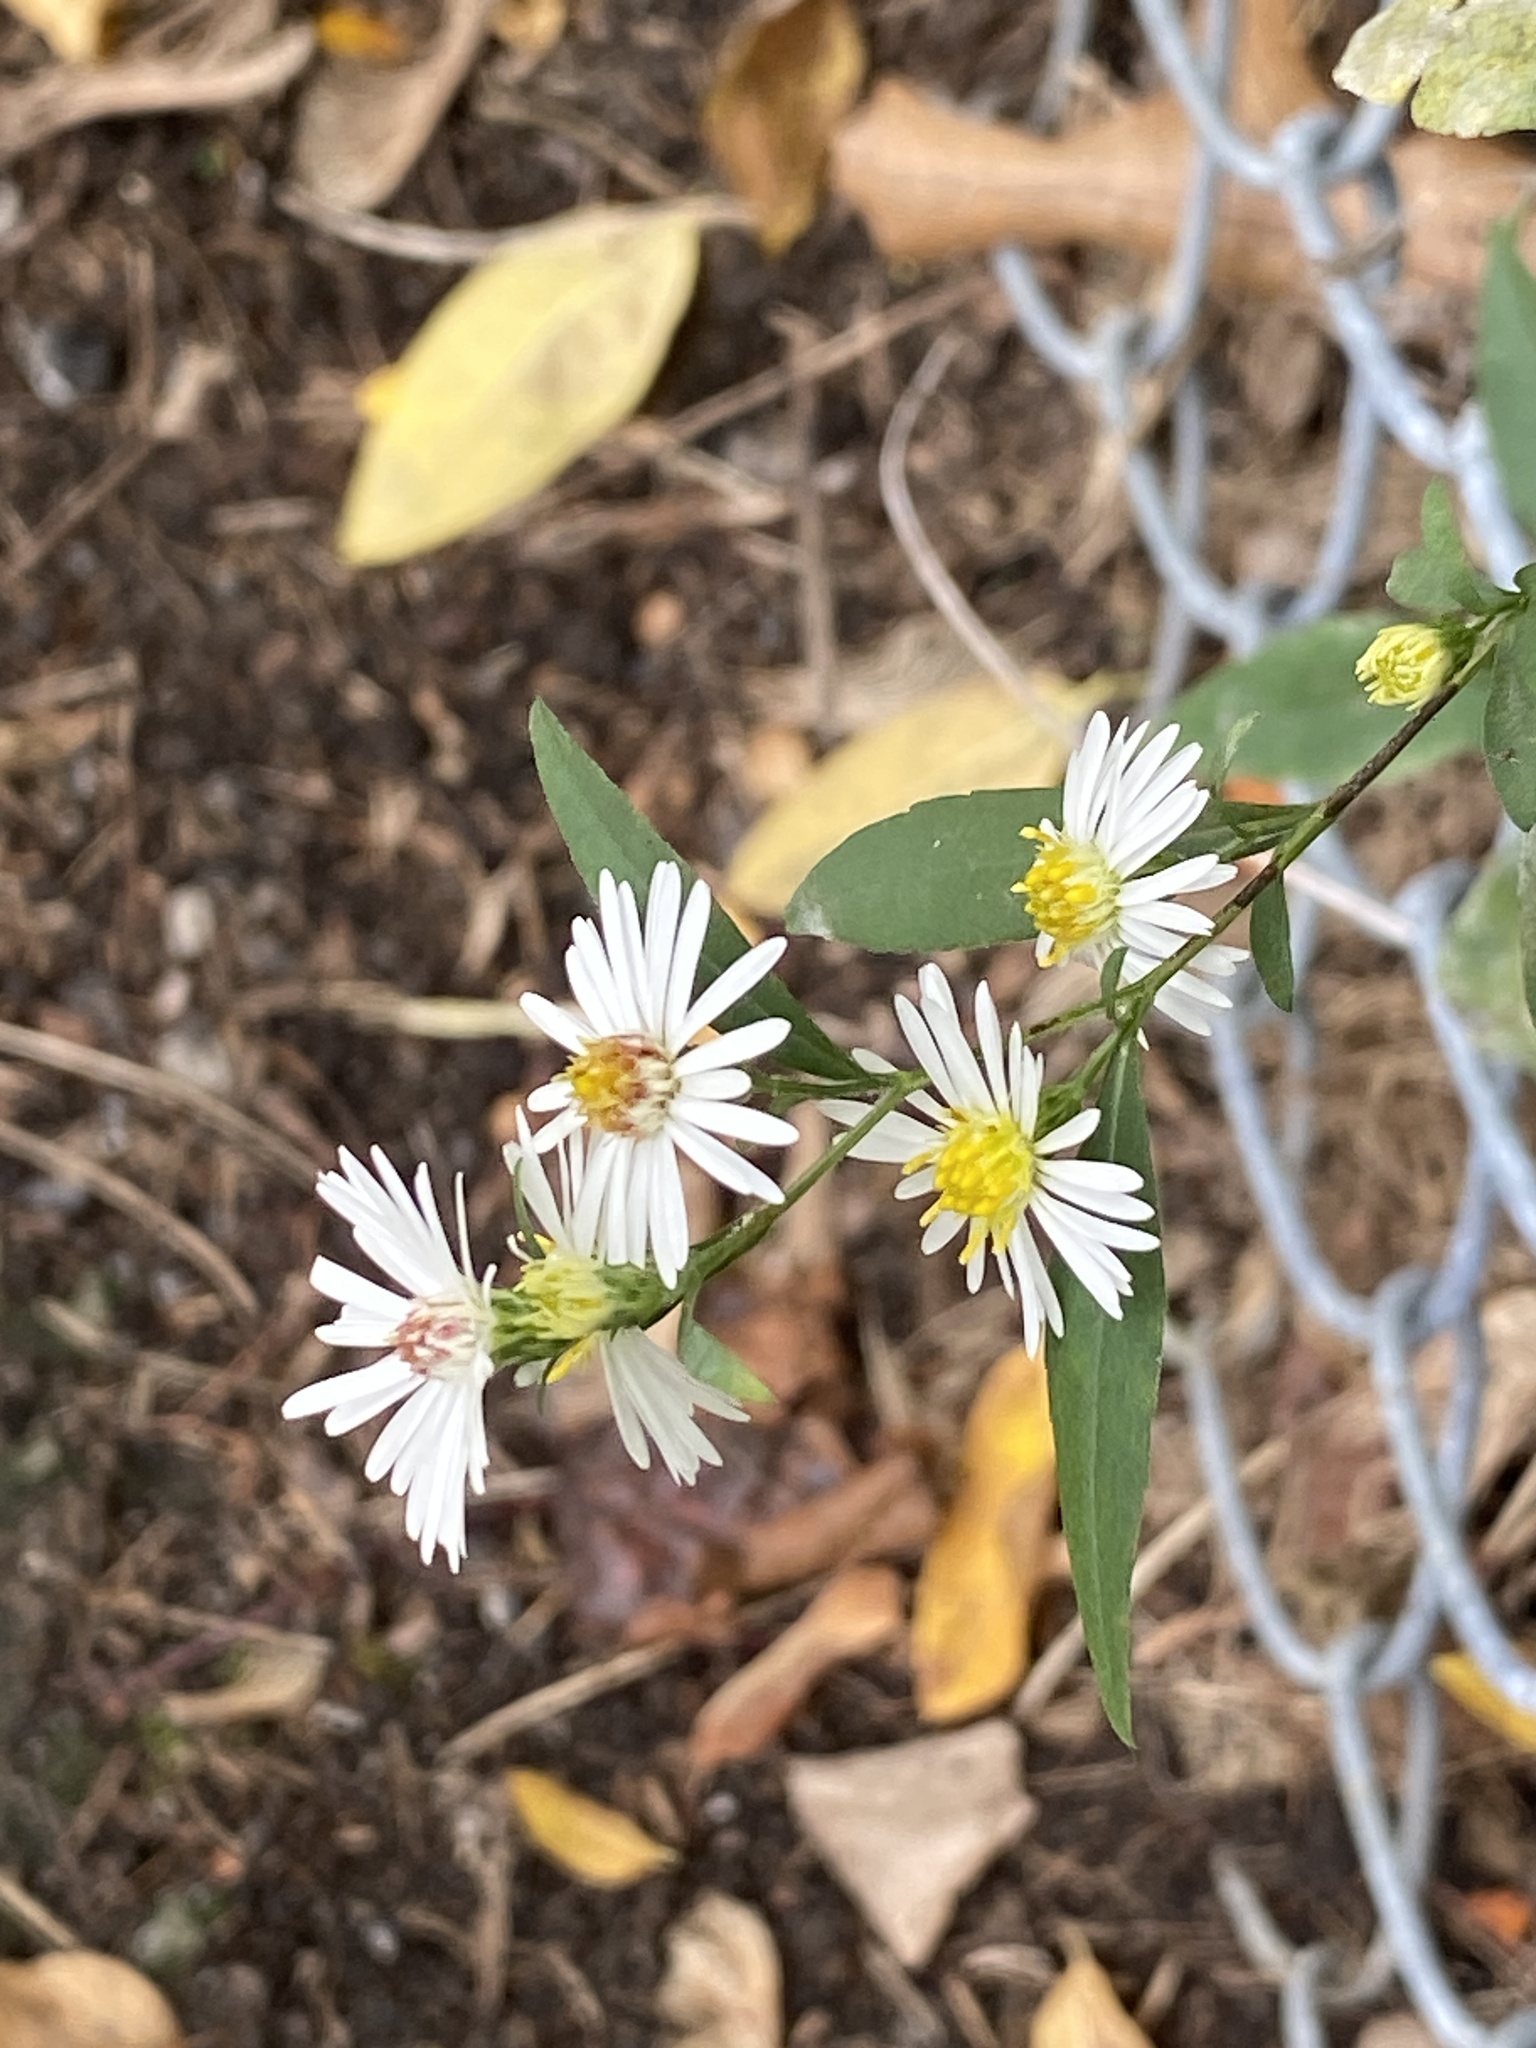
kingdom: Plantae
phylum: Tracheophyta
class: Magnoliopsida
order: Asterales
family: Asteraceae
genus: Symphyotrichum
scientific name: Symphyotrichum lanceolatum
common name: Panicled aster
